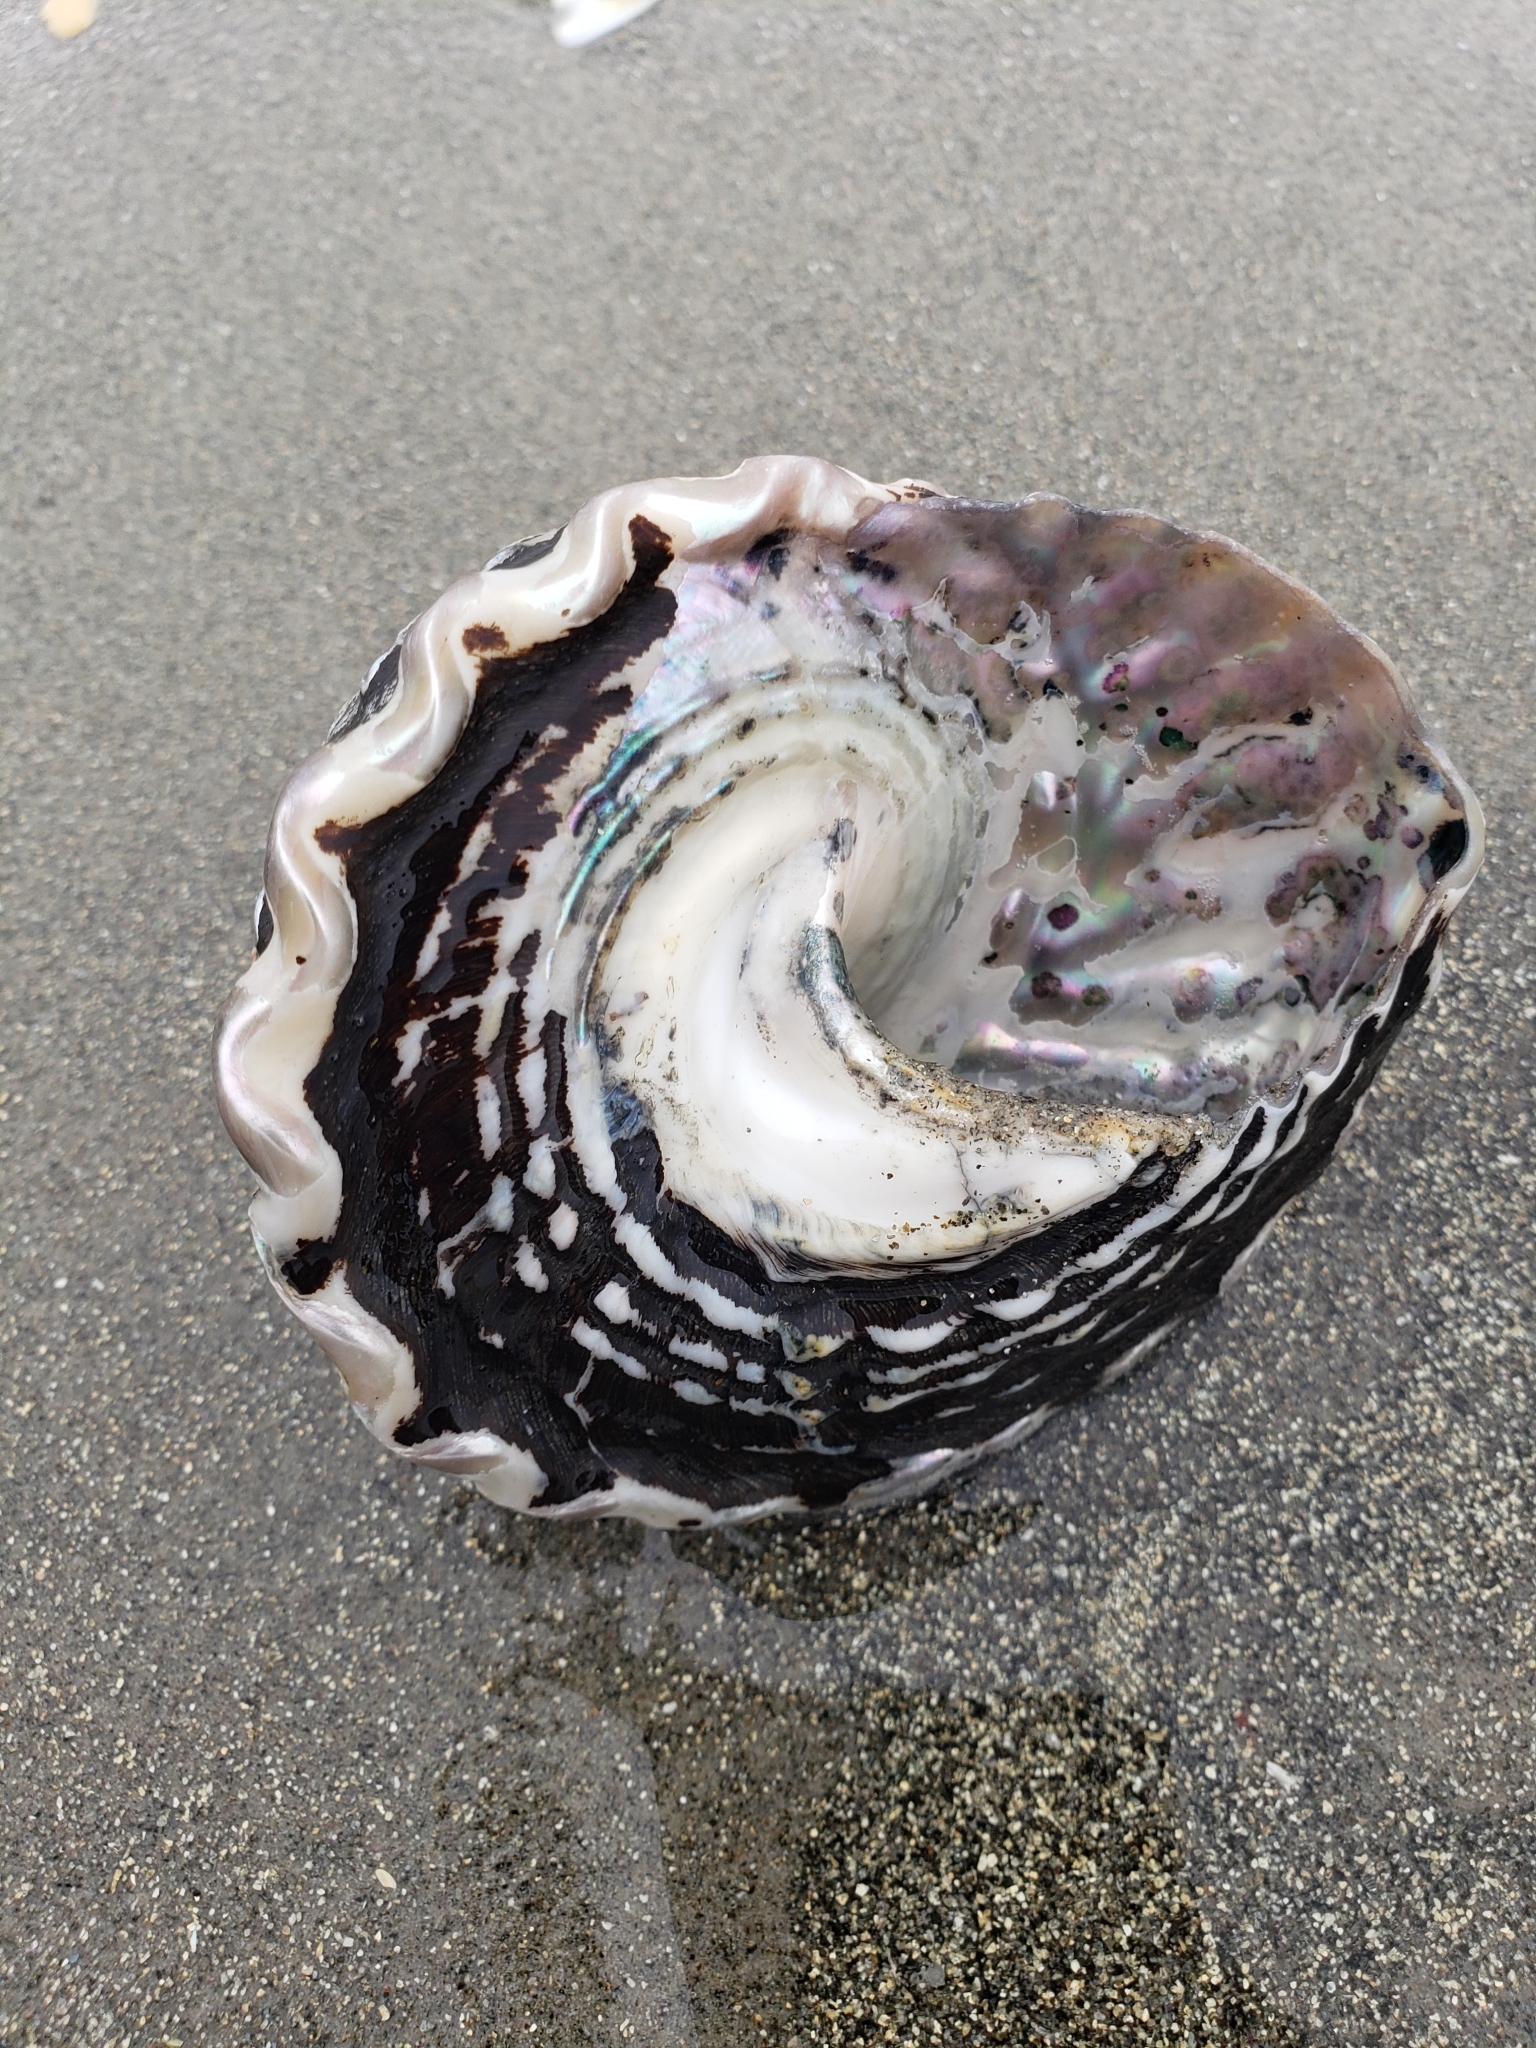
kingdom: Animalia
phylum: Mollusca
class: Gastropoda
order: Trochida
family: Turbinidae
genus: Megastraea
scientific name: Megastraea undosa
